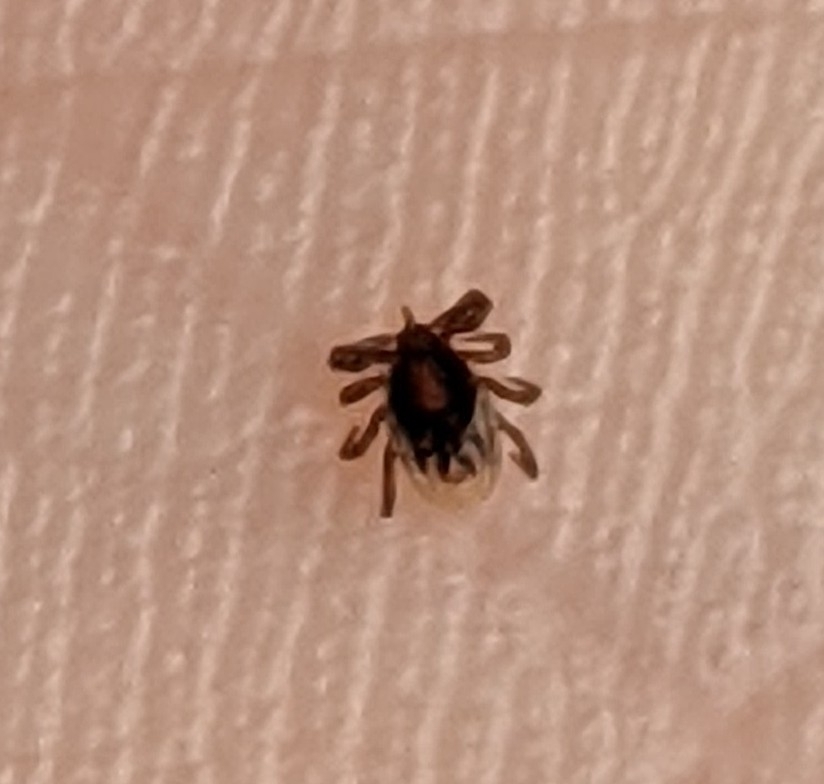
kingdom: Animalia
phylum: Arthropoda
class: Arachnida
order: Ixodida
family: Ixodidae
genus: Ixodes
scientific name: Ixodes scapularis
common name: Black legged tick
